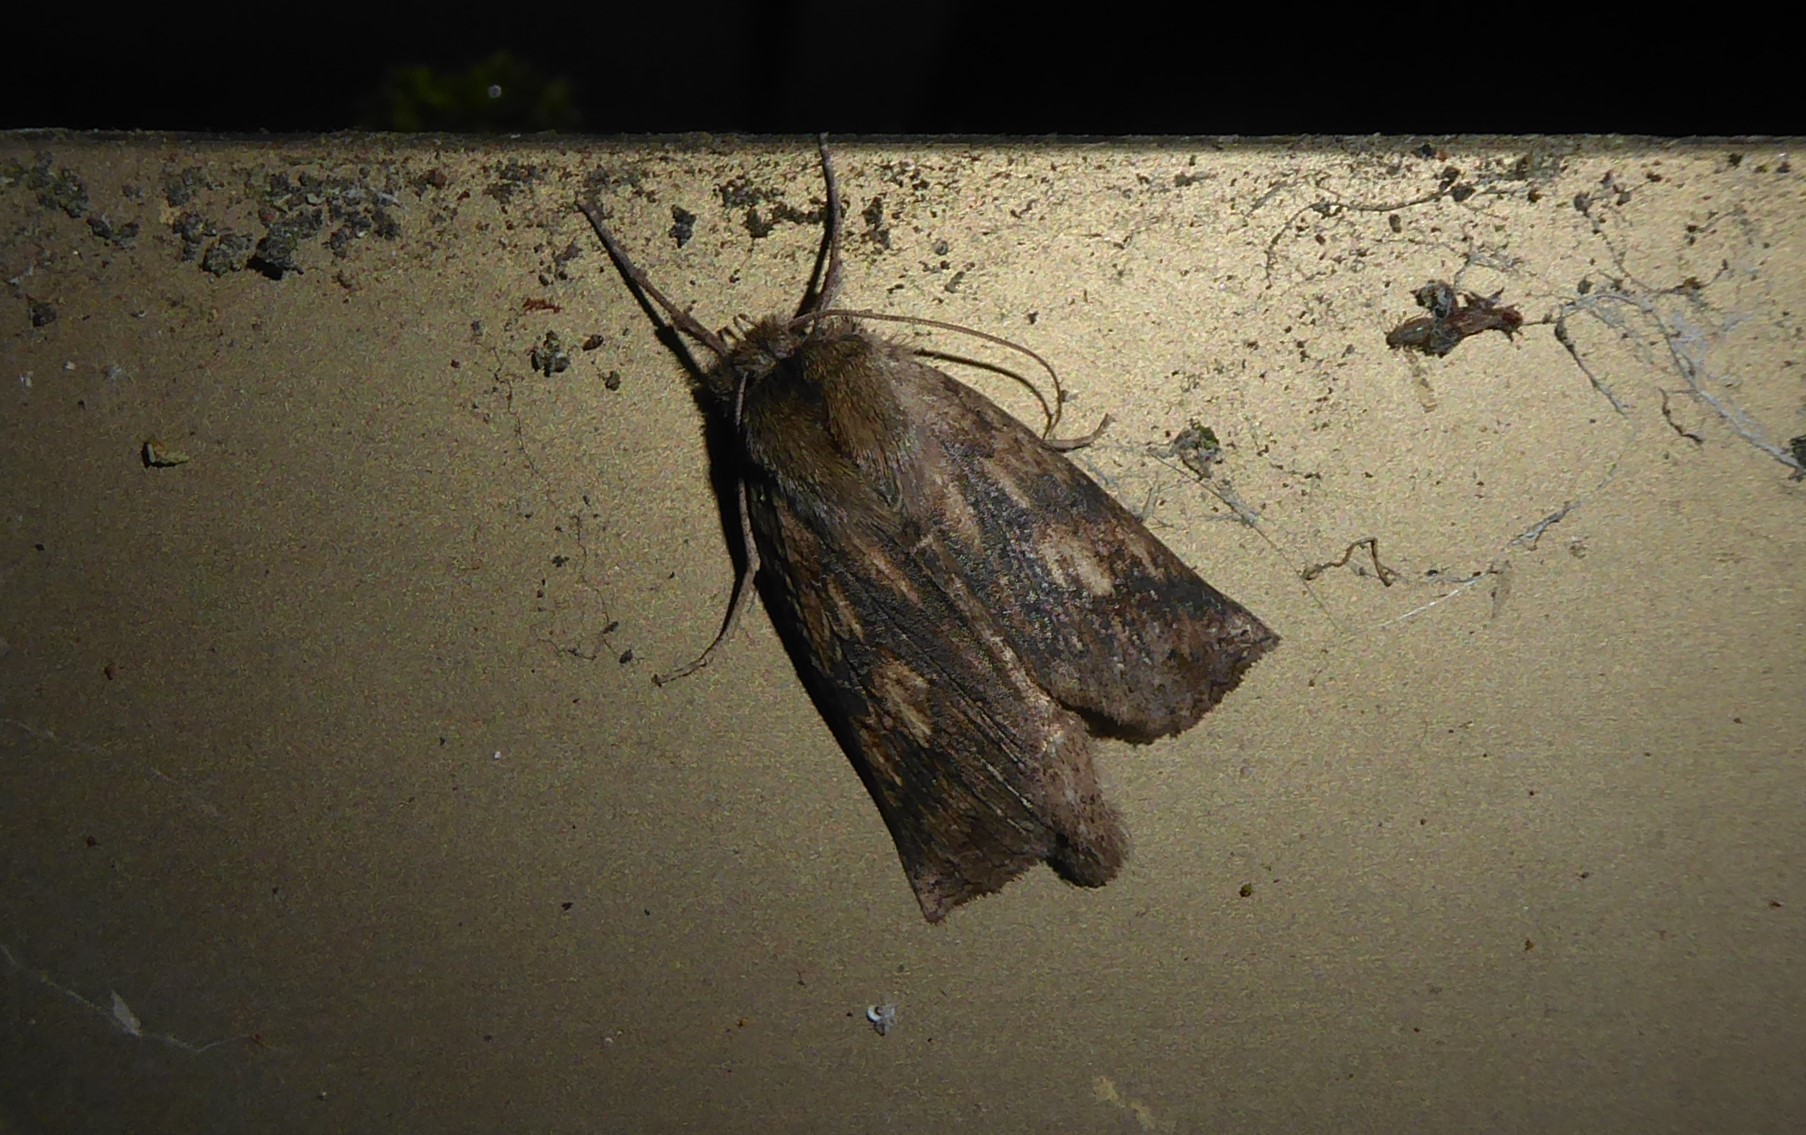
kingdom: Animalia
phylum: Arthropoda
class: Insecta
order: Lepidoptera
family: Geometridae
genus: Declana
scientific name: Declana leptomera
